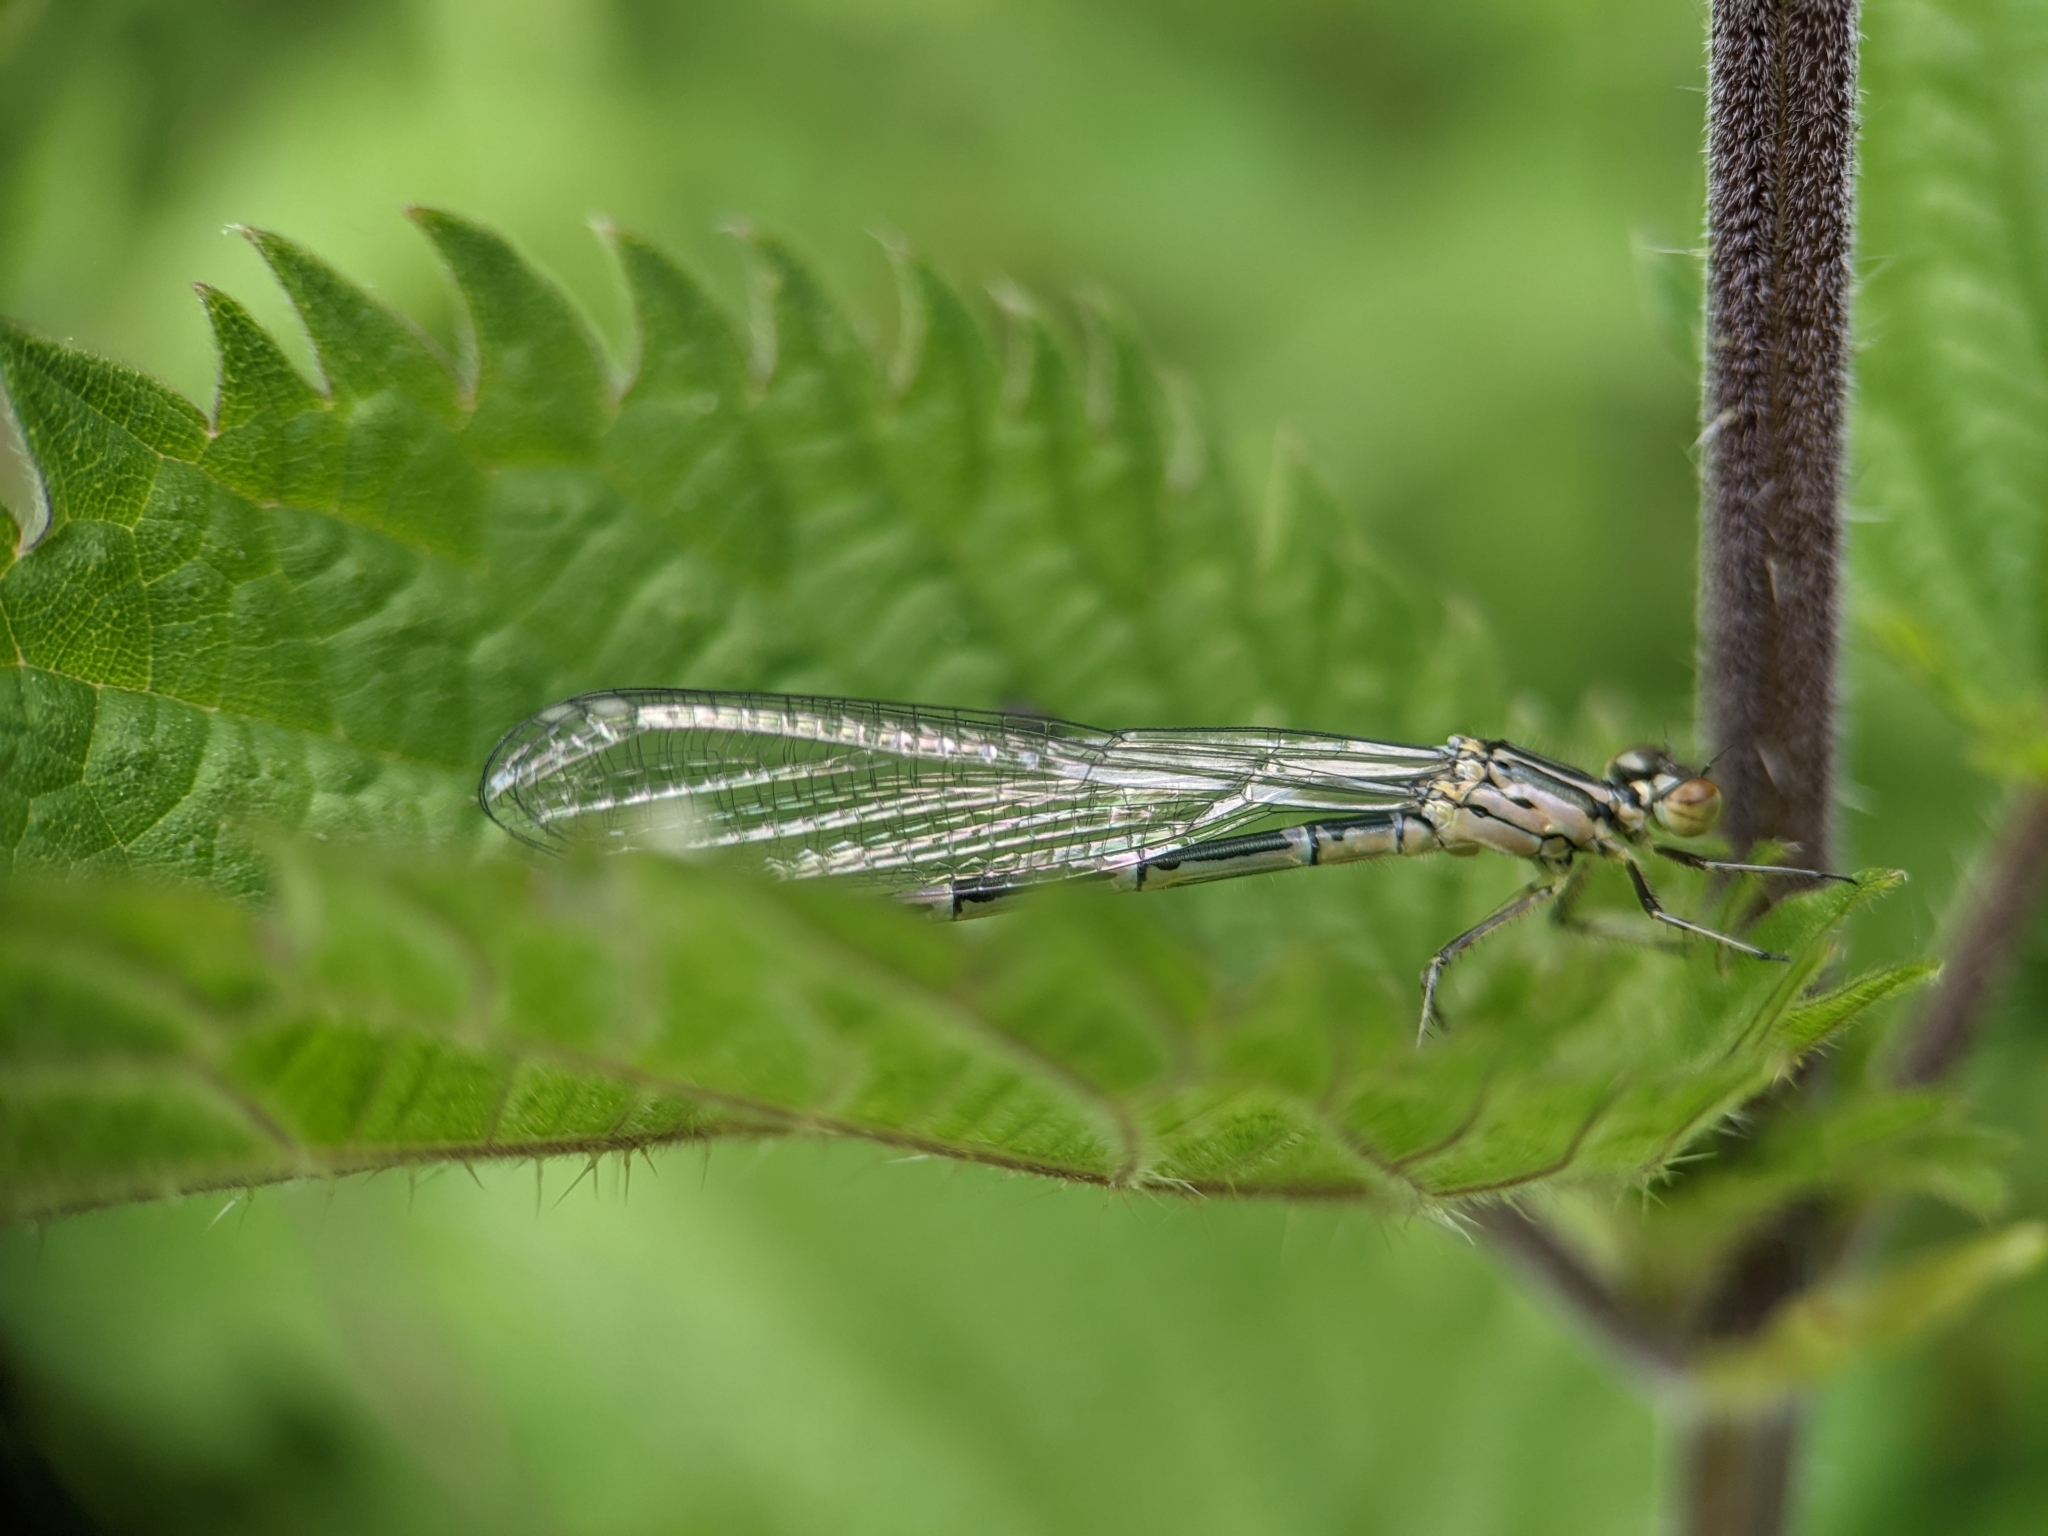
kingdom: Animalia
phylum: Arthropoda
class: Insecta
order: Odonata
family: Coenagrionidae
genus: Coenagrion
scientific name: Coenagrion puella
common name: Azure damselfly
